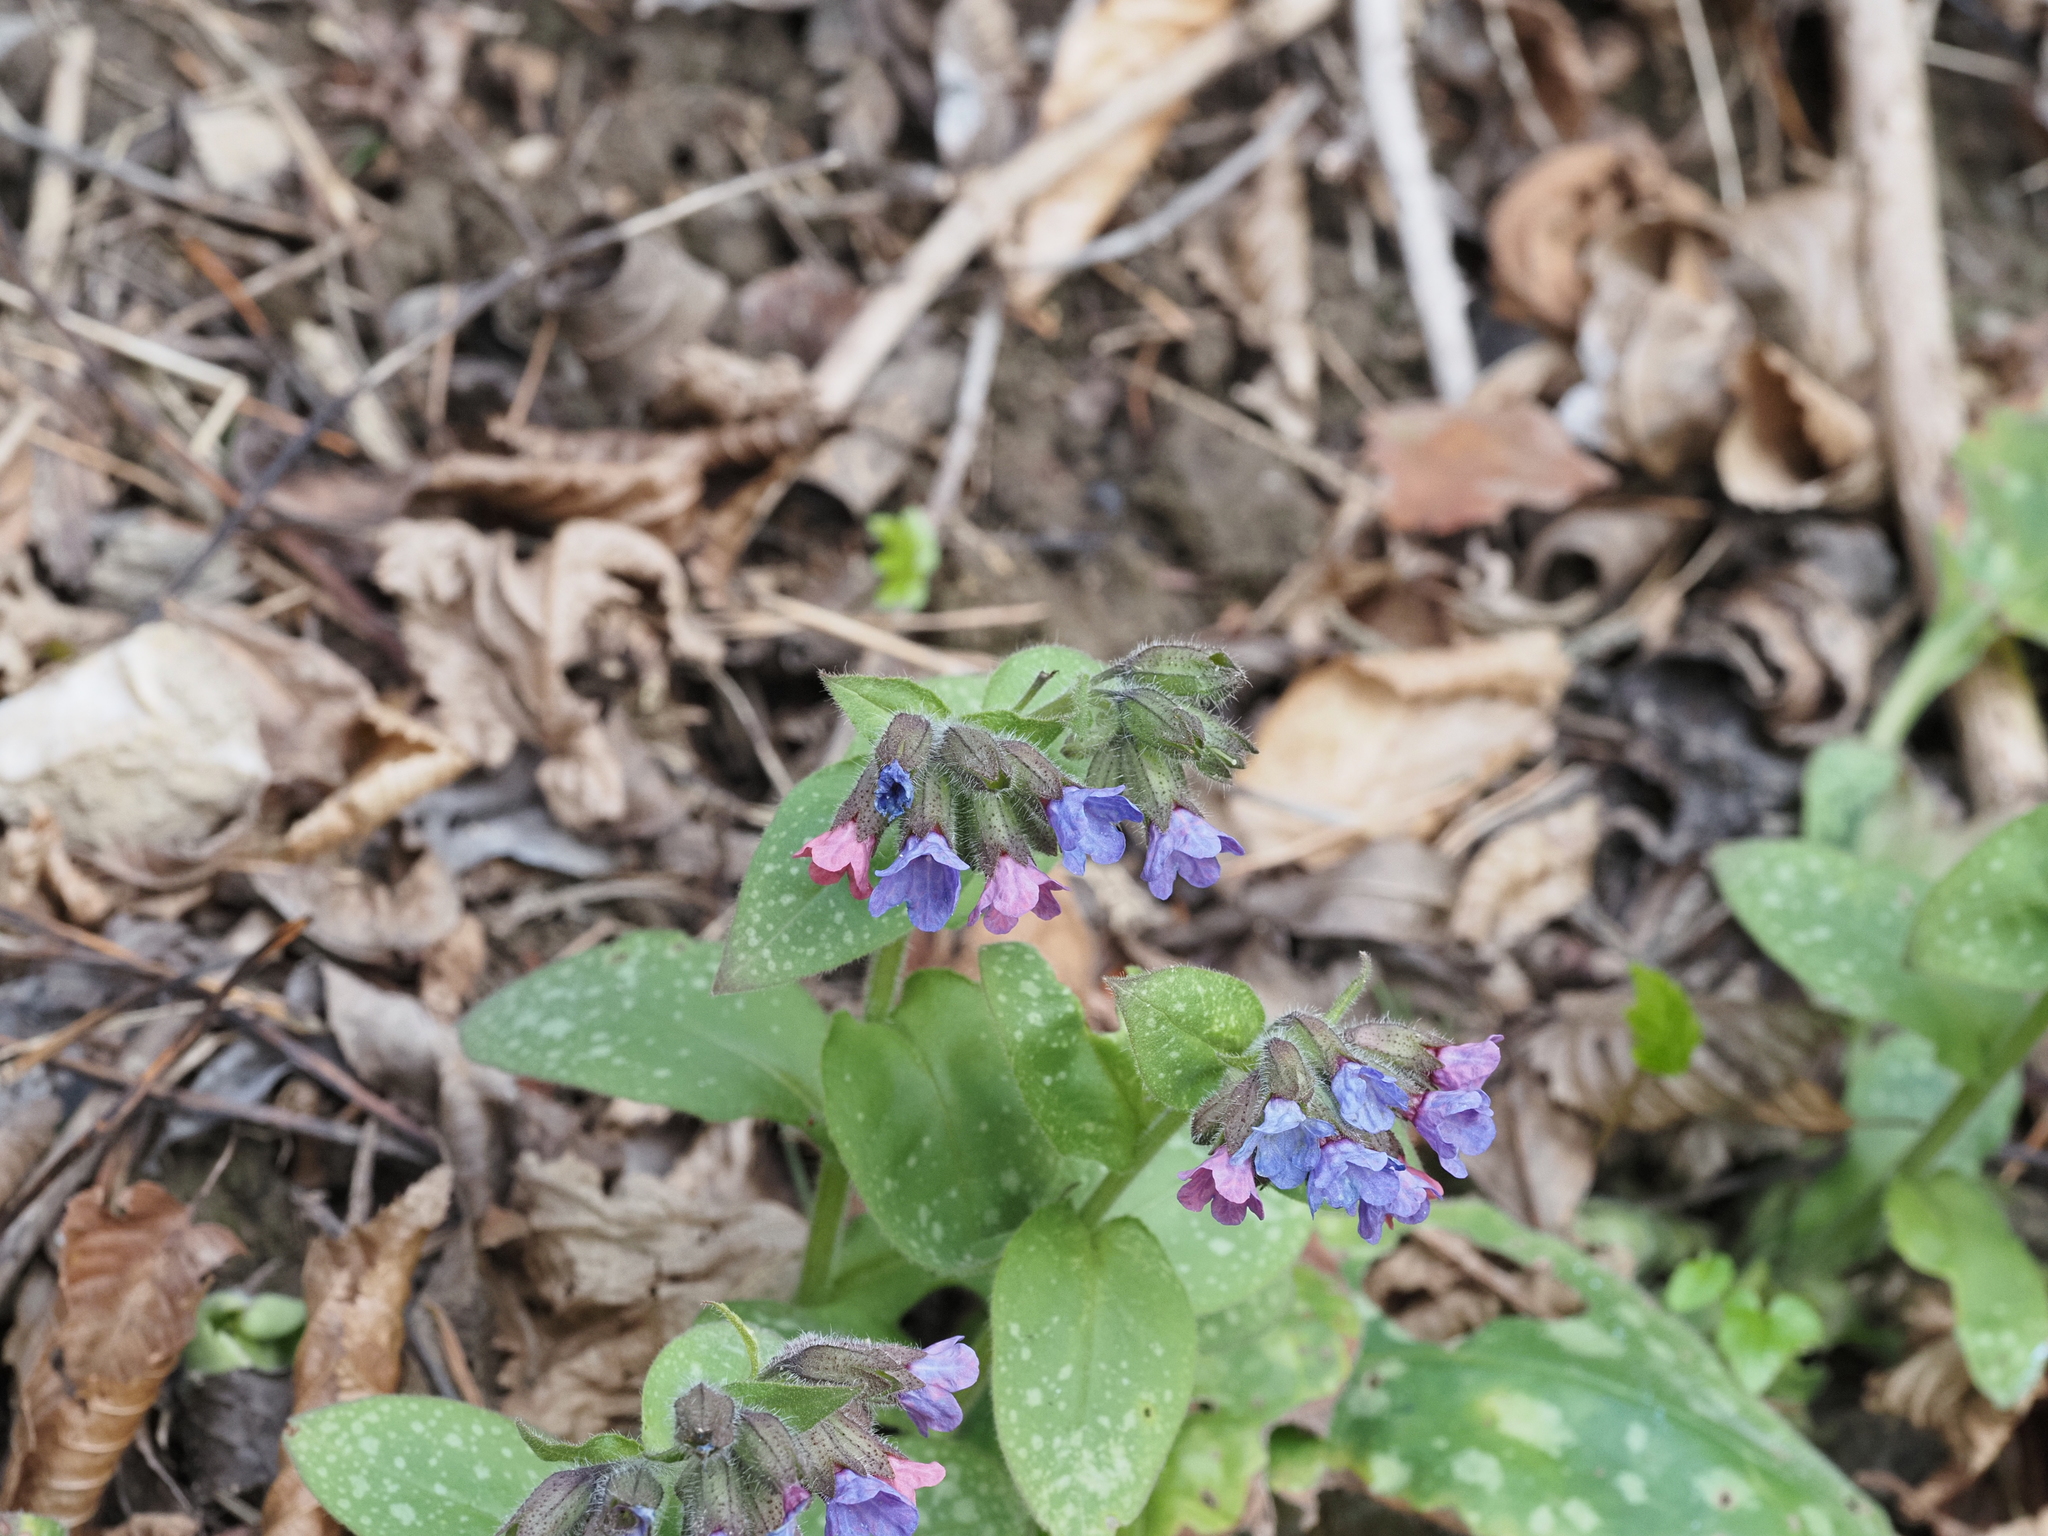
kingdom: Plantae
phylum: Tracheophyta
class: Magnoliopsida
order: Boraginales
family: Boraginaceae
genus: Pulmonaria
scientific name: Pulmonaria officinalis
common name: Lungwort
